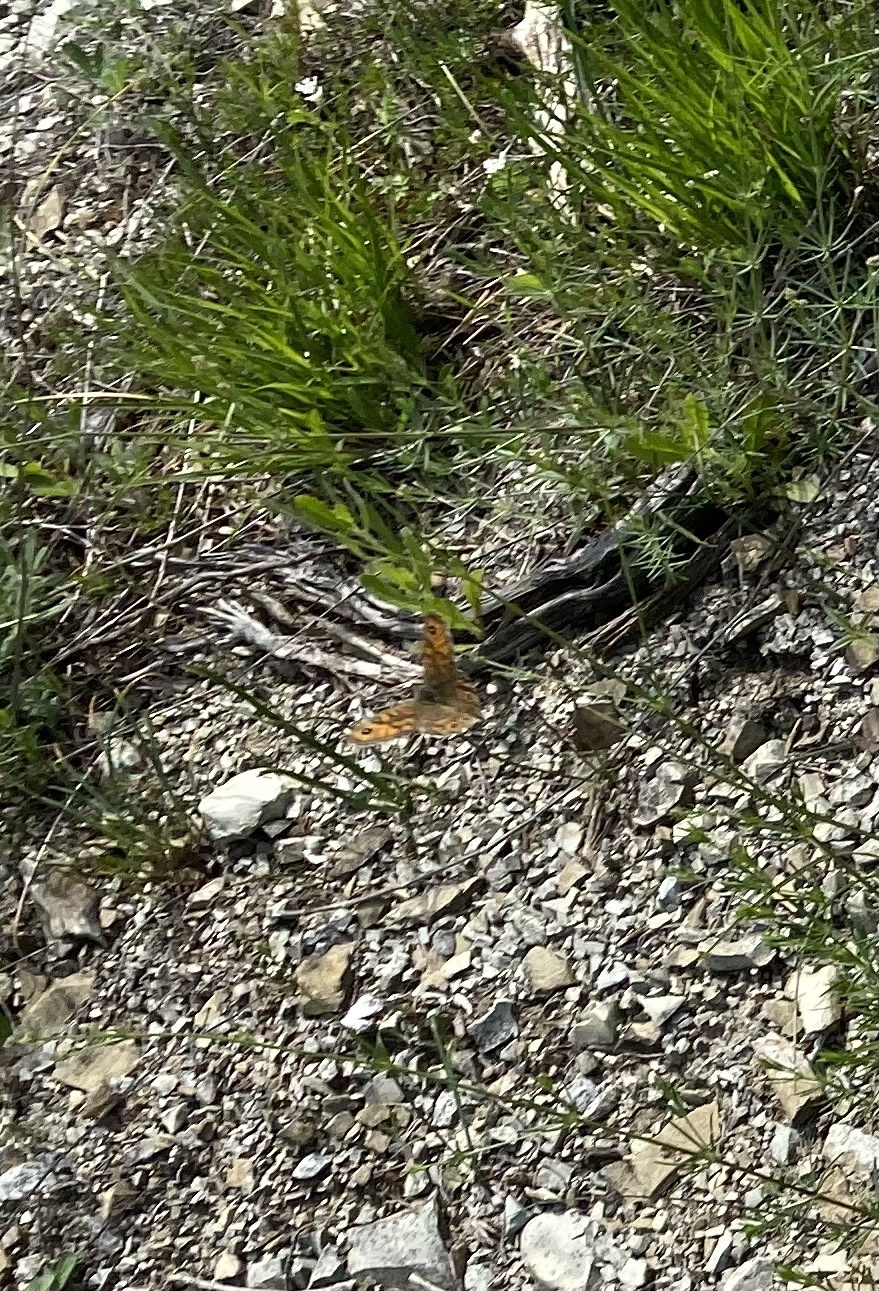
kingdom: Animalia
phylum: Arthropoda
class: Insecta
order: Lepidoptera
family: Nymphalidae
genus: Pararge
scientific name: Pararge Lasiommata megera
